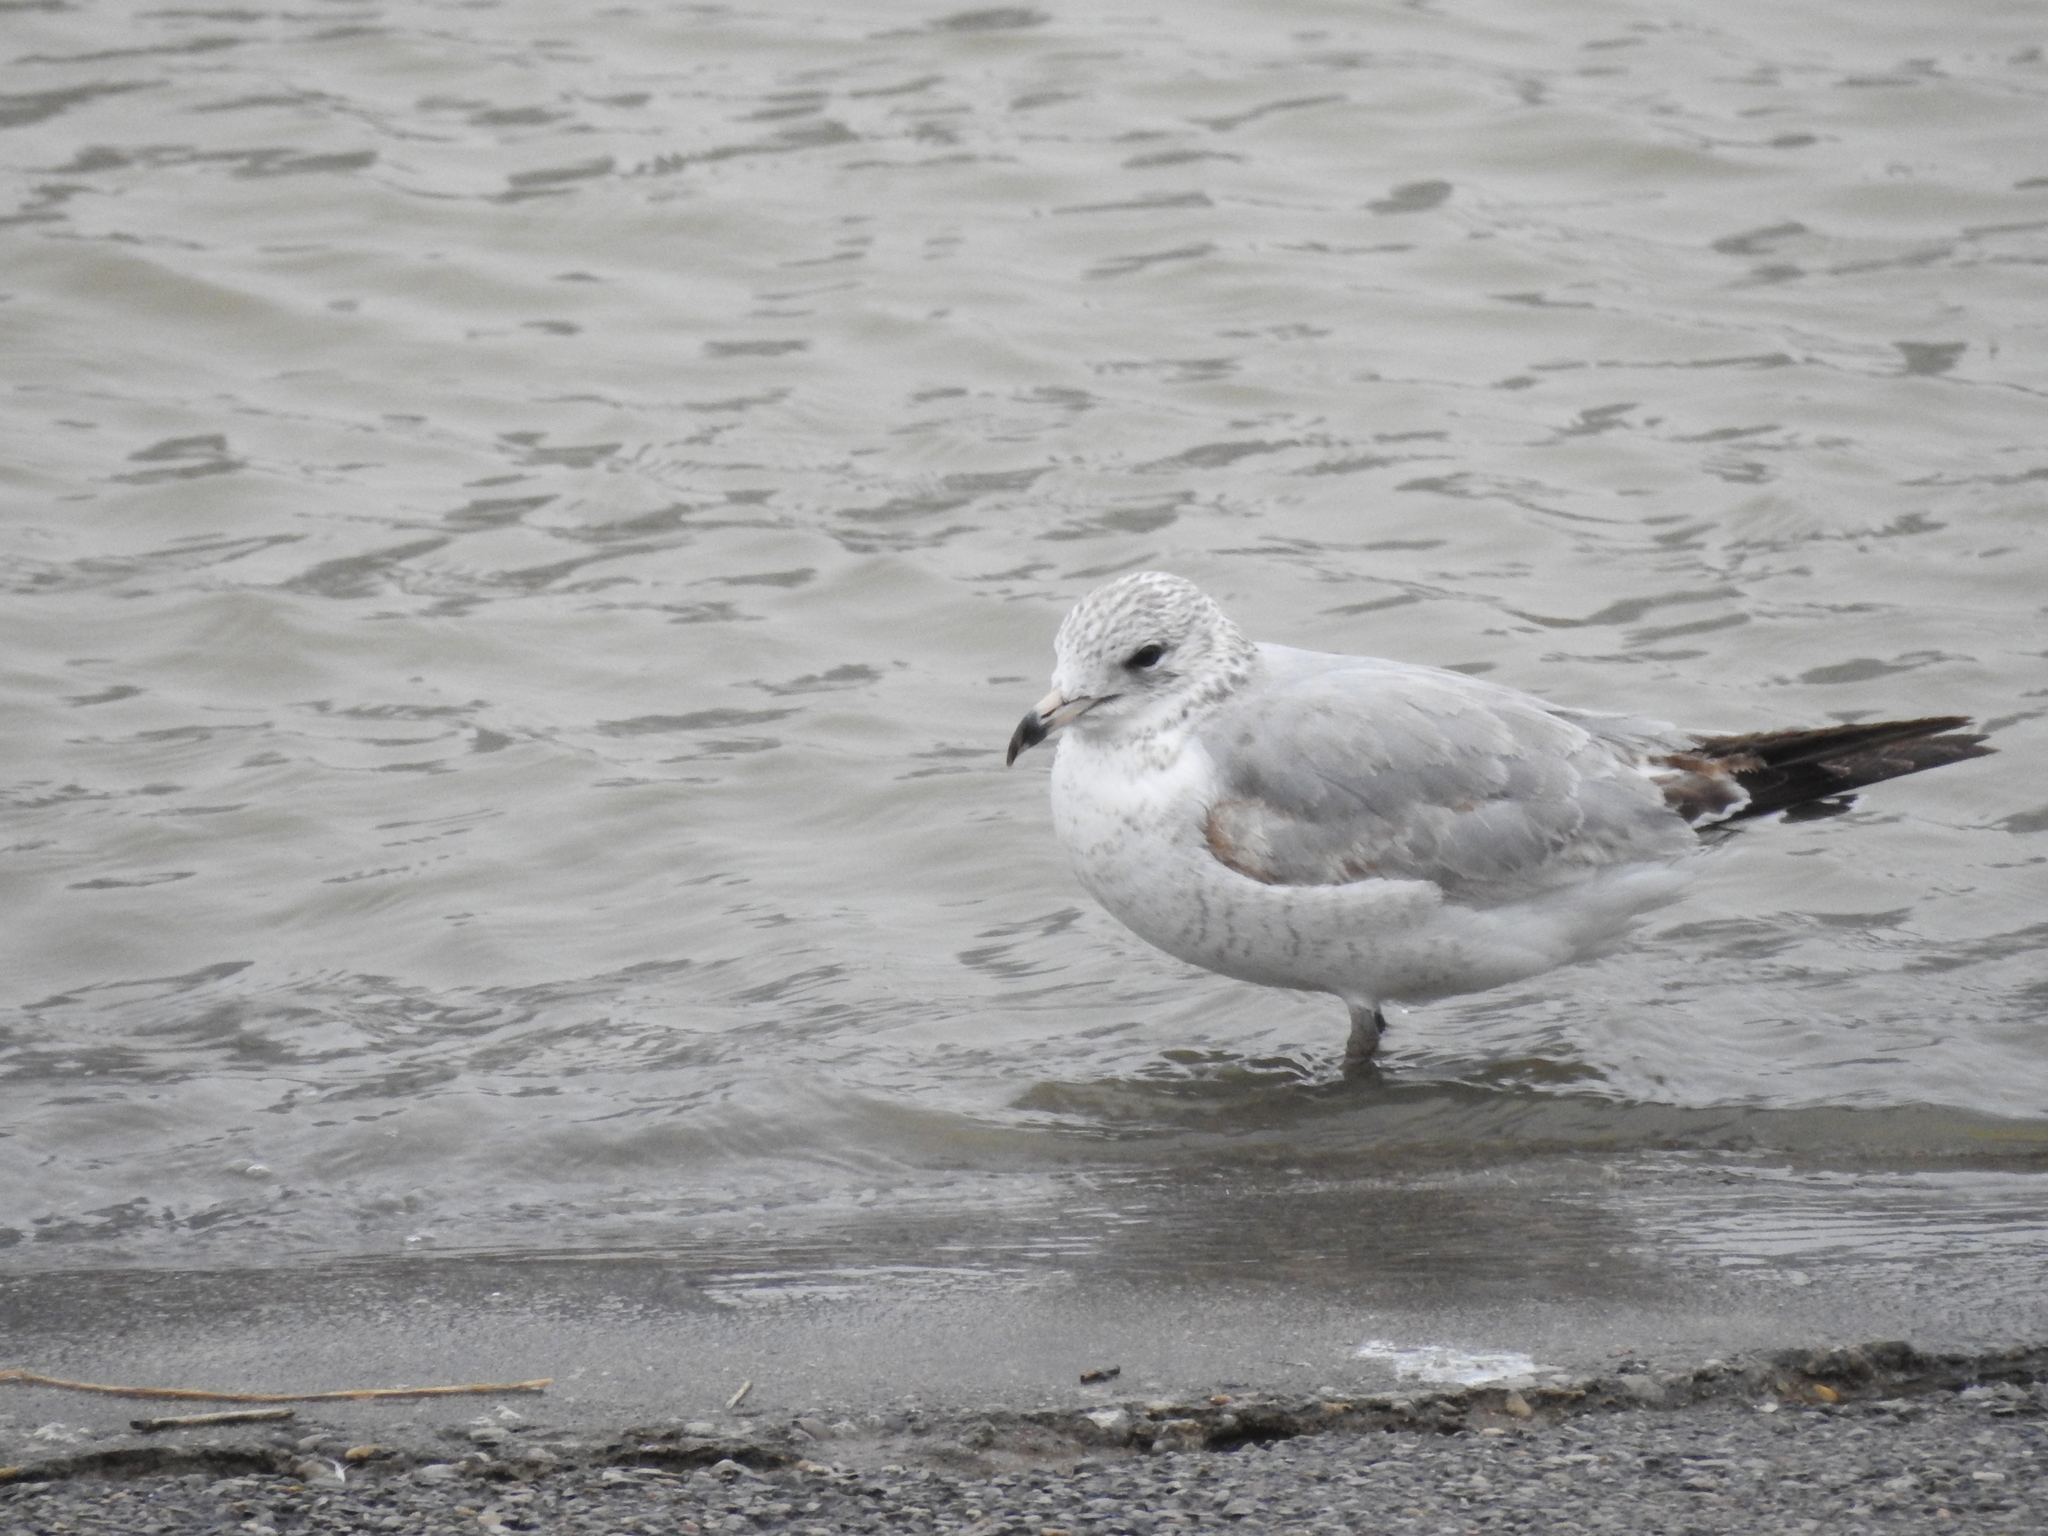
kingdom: Animalia
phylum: Chordata
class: Aves
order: Charadriiformes
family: Laridae
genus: Larus
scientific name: Larus delawarensis
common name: Ring-billed gull
